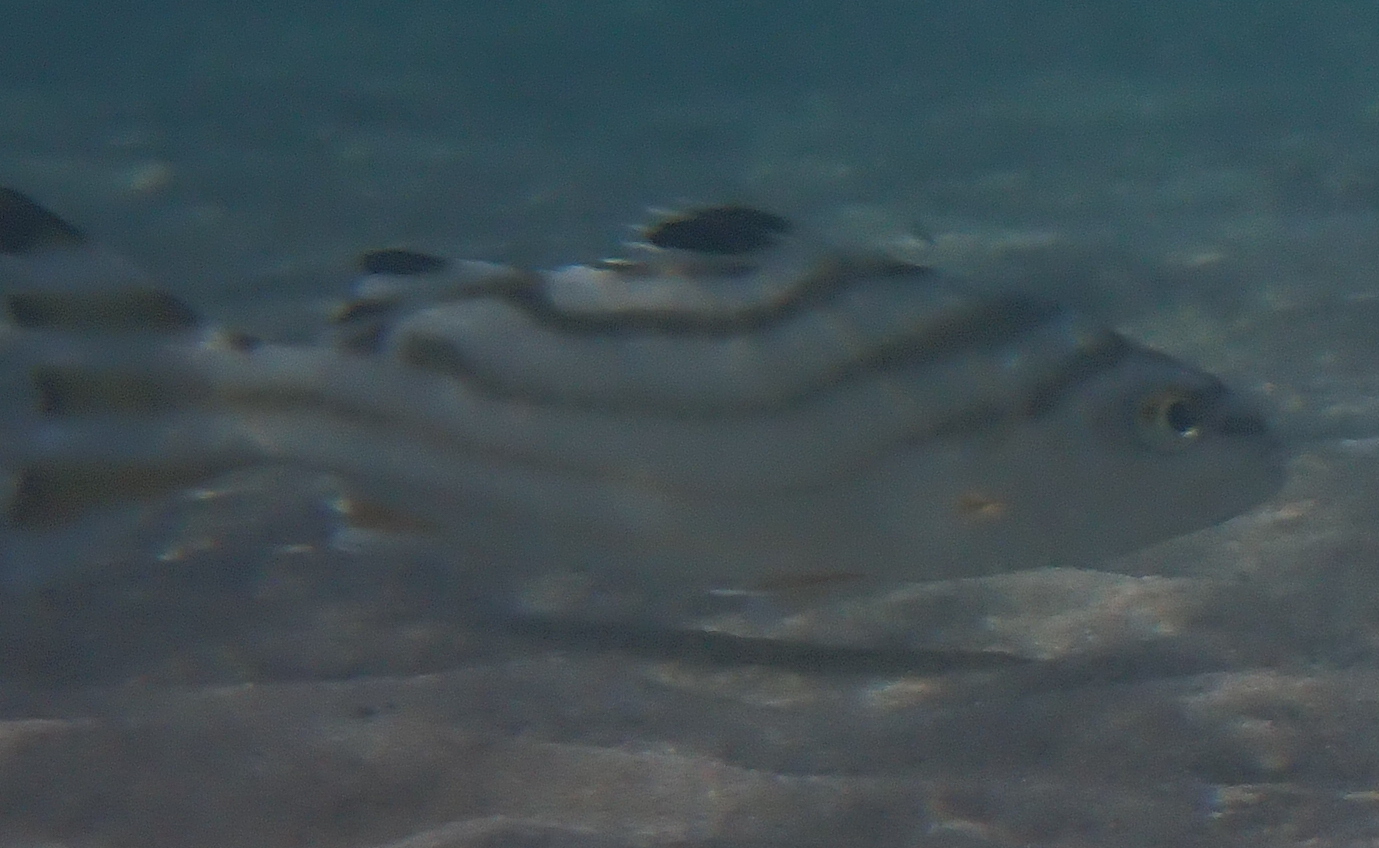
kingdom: Animalia
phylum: Chordata
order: Perciformes
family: Terapontidae
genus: Terapon
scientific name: Terapon jarbua
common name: Jarbua terapon
